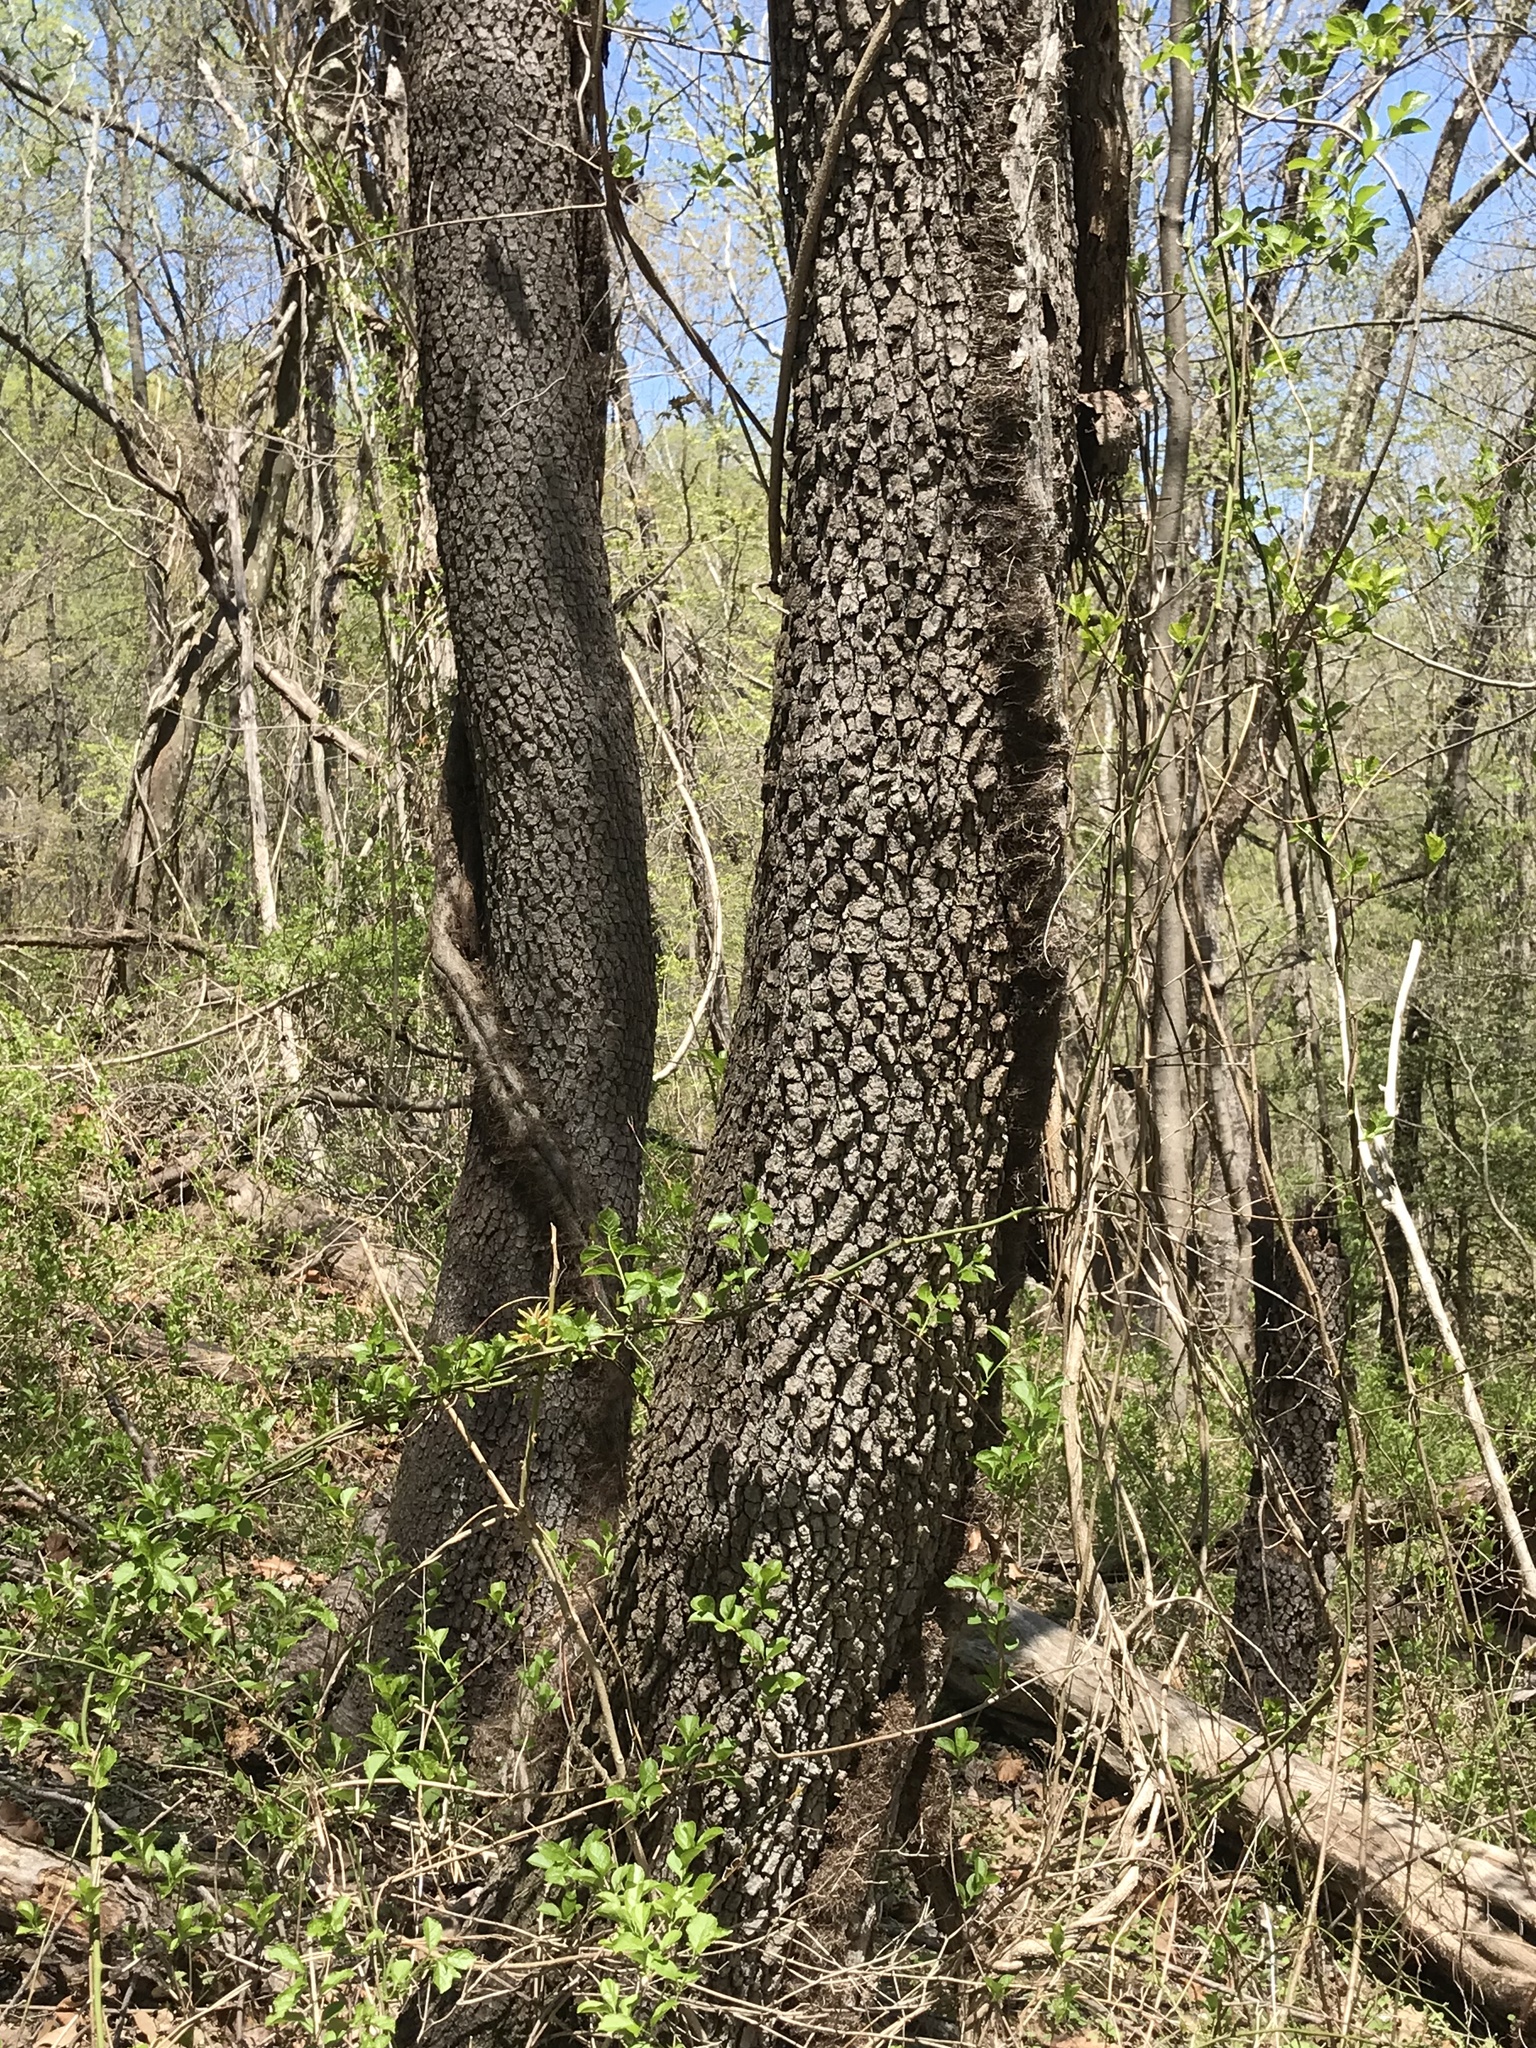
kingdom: Plantae
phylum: Tracheophyta
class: Magnoliopsida
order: Ericales
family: Ebenaceae
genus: Diospyros
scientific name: Diospyros virginiana
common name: Persimmon
